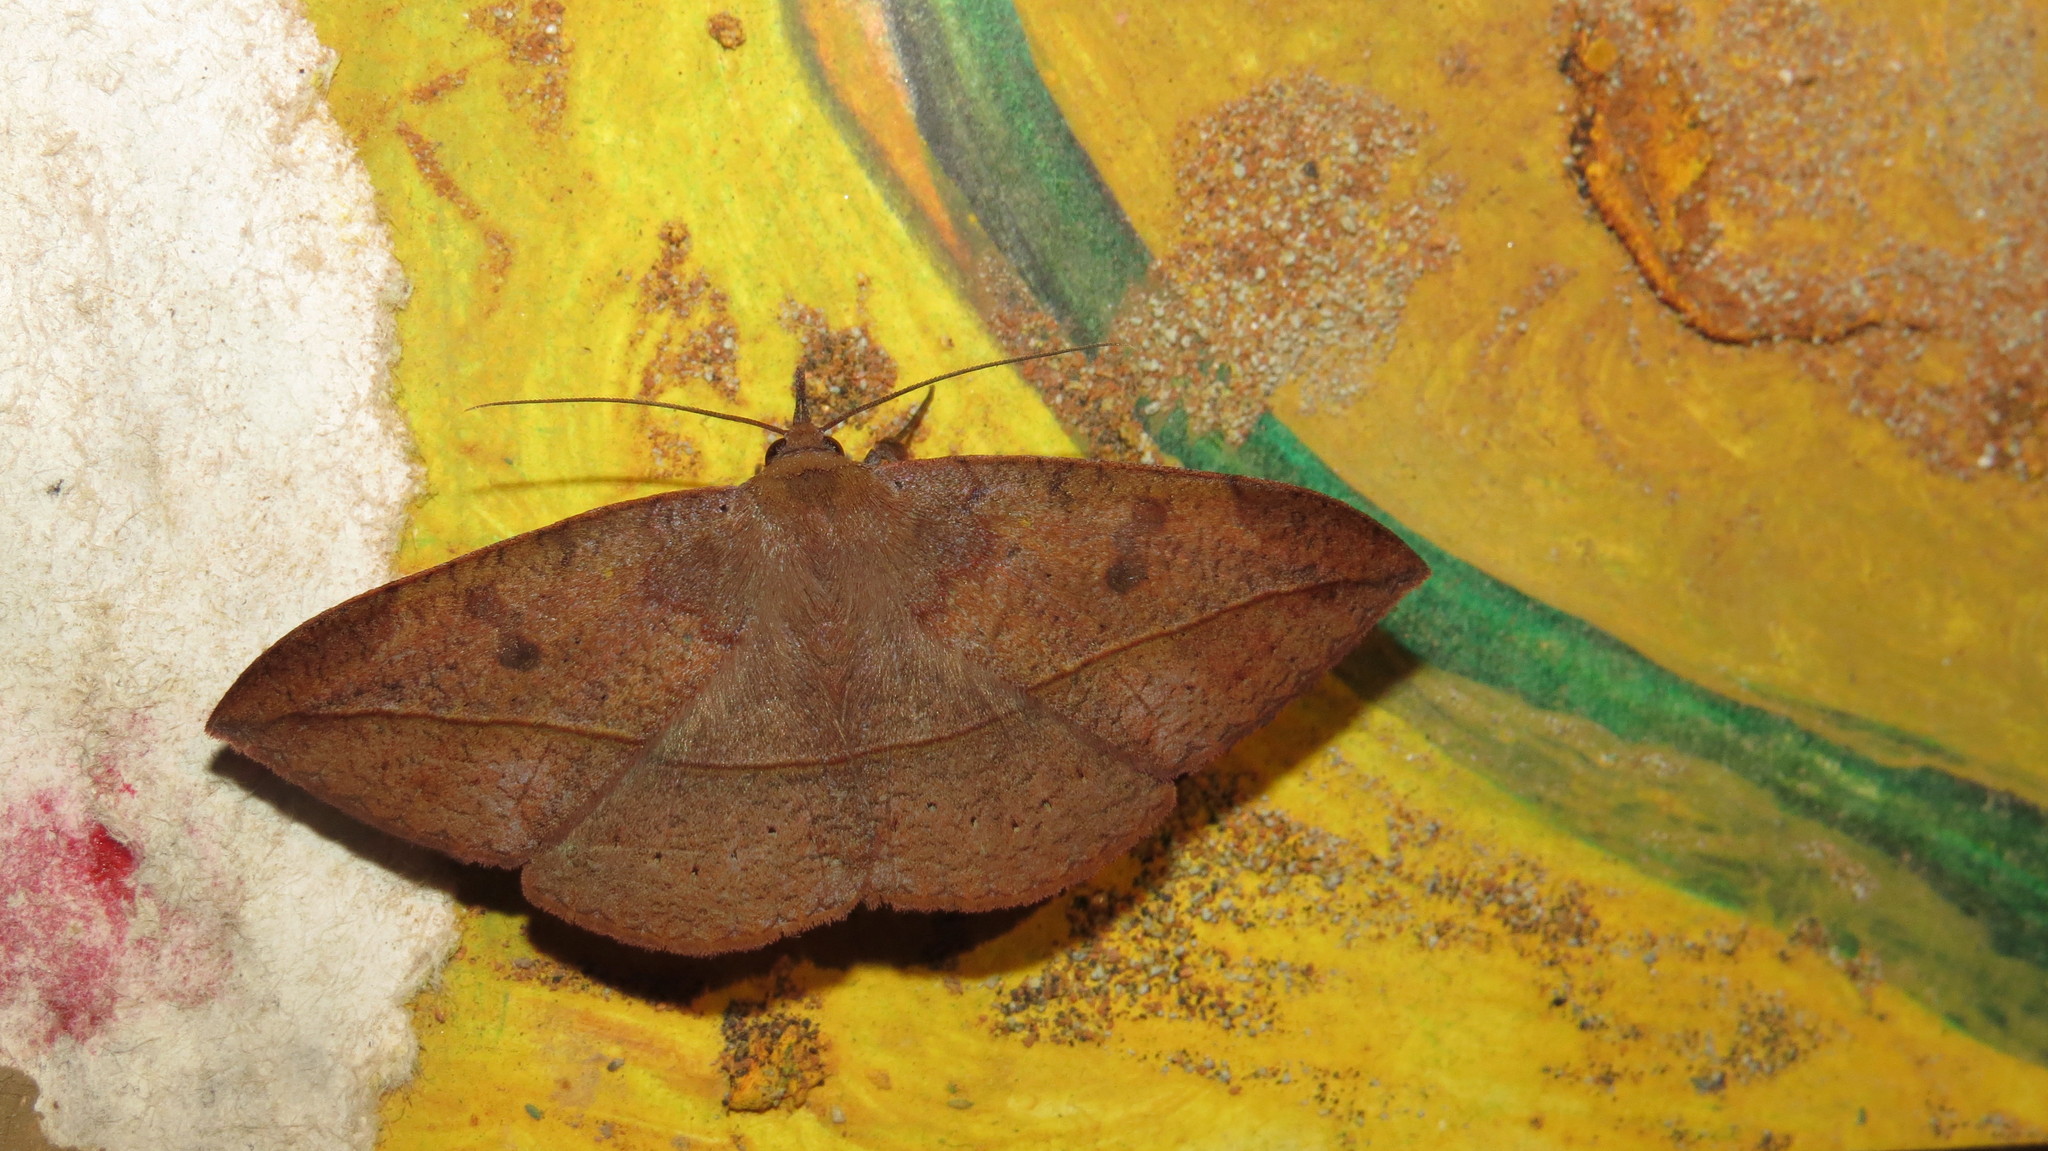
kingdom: Animalia
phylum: Arthropoda
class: Insecta
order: Lepidoptera
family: Erebidae
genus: Metallata
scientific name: Metallata absumens
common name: Brown leaf mimic
